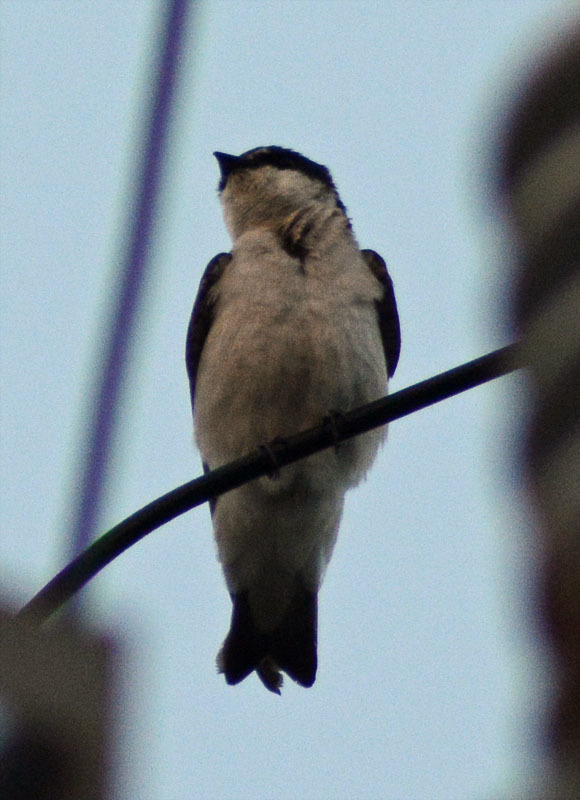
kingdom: Animalia
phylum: Chordata
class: Aves
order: Passeriformes
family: Hirundinidae
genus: Tachycineta
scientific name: Tachycineta albilinea
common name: Mangrove swallow
